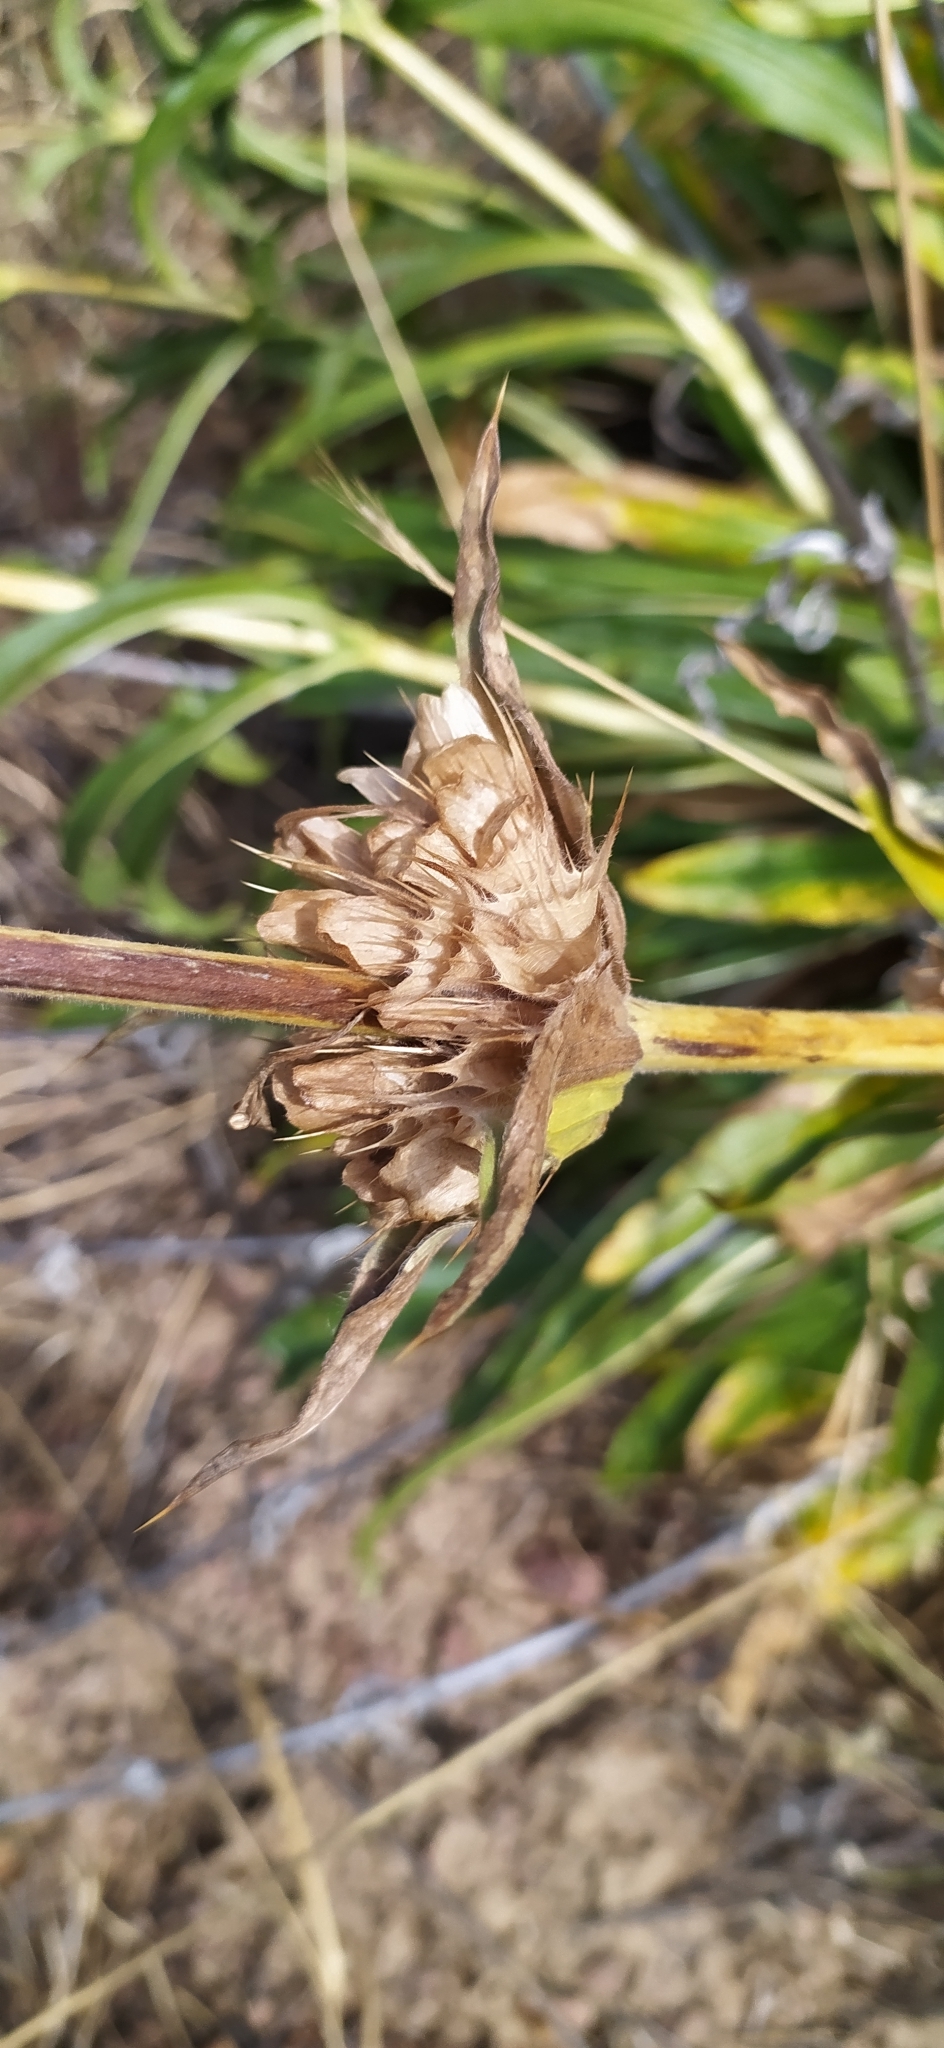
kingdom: Plantae
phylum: Tracheophyta
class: Magnoliopsida
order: Dipsacales
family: Caprifoliaceae
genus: Morina
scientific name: Morina kokanica
